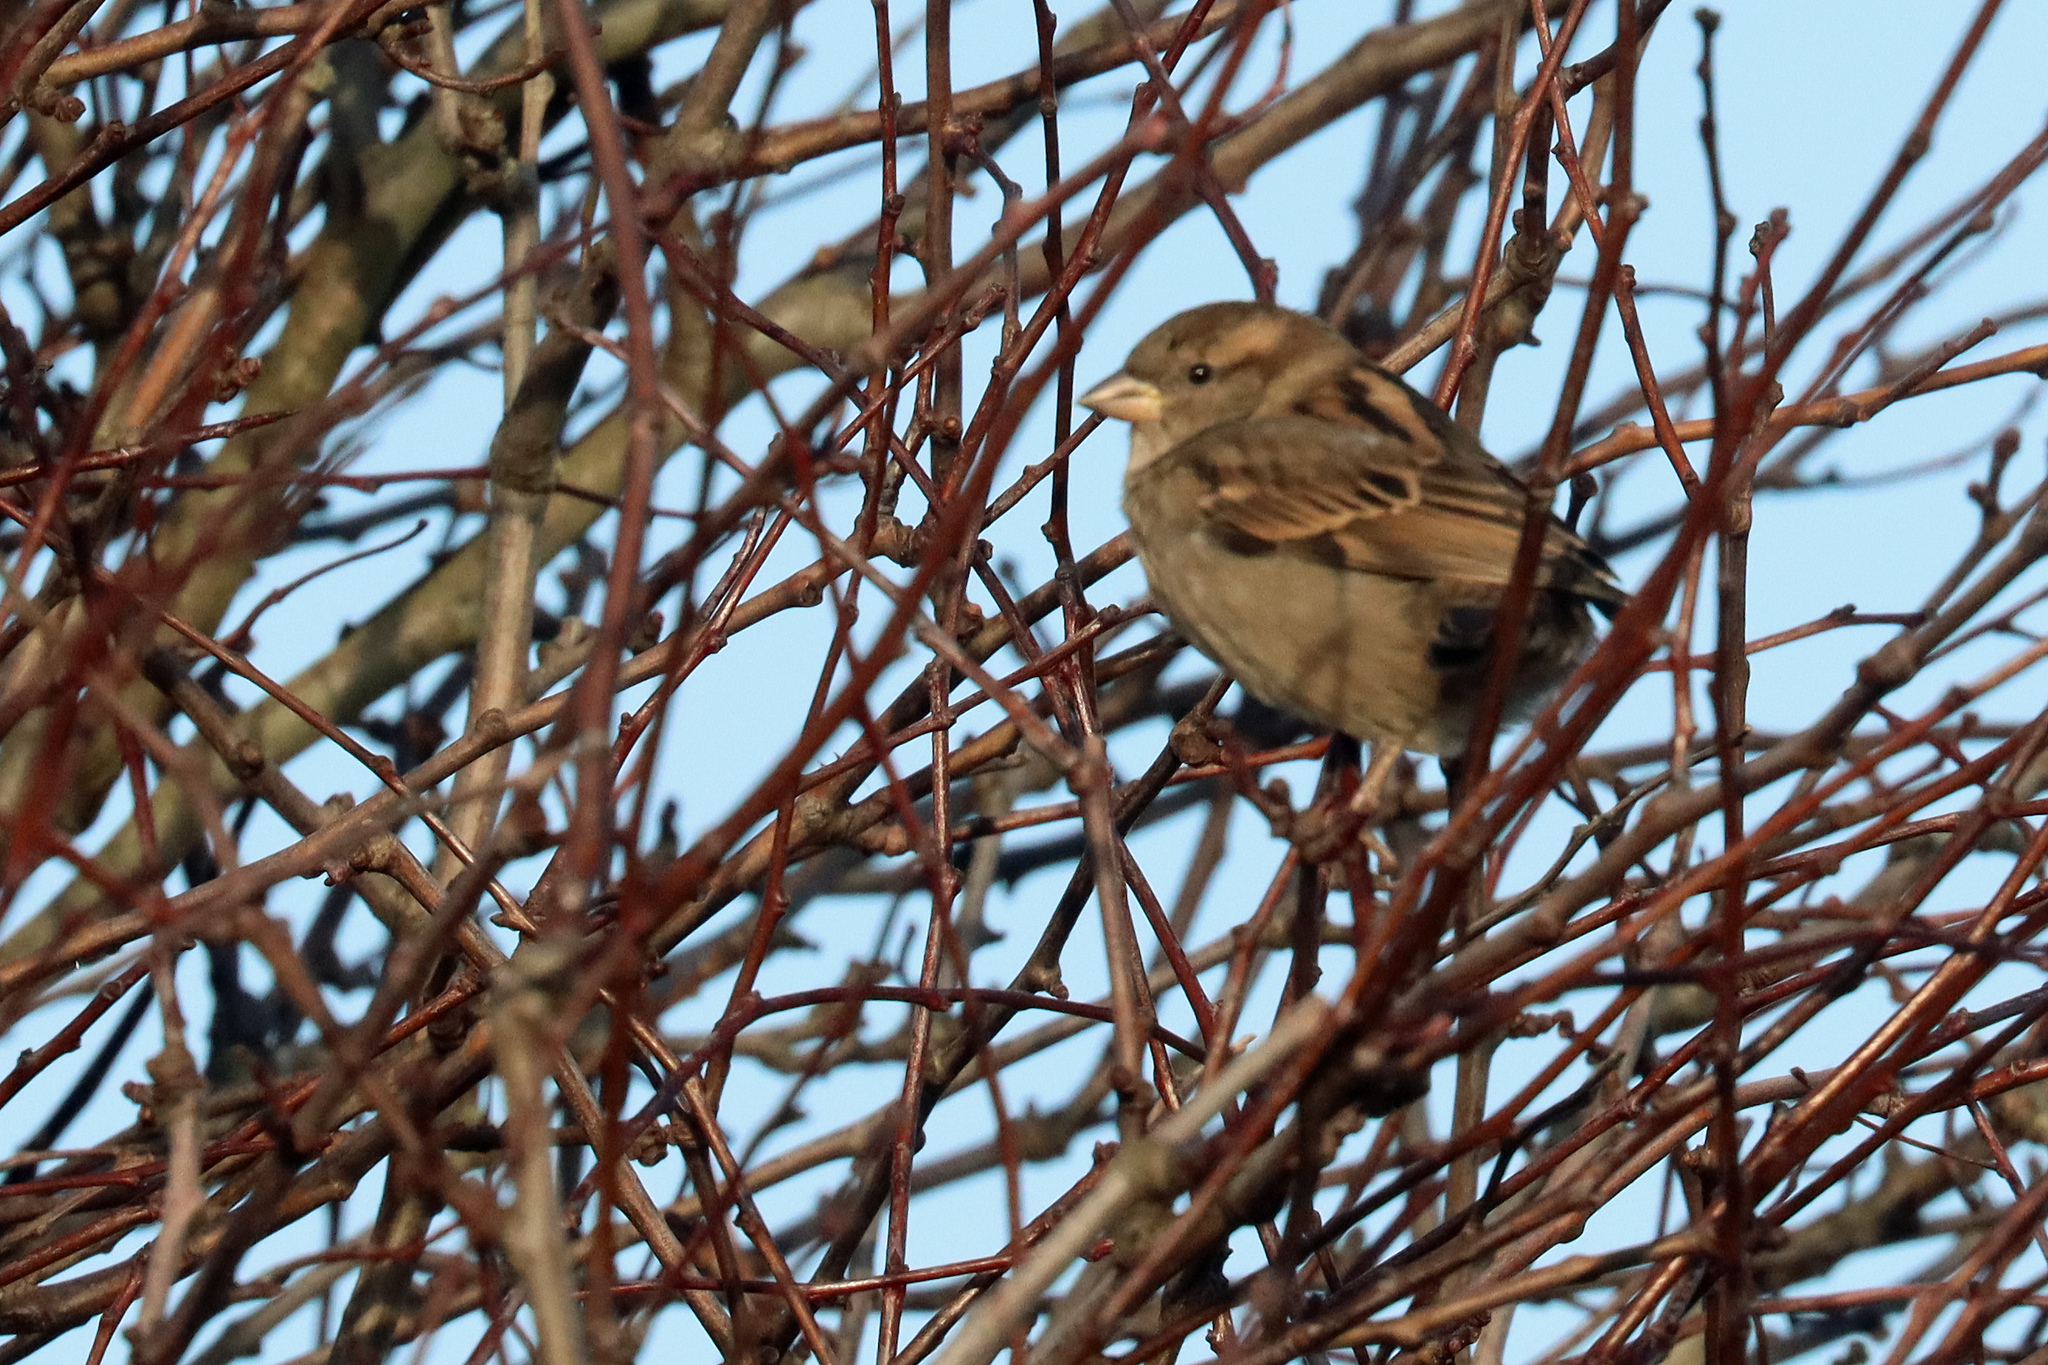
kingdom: Animalia
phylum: Chordata
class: Aves
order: Passeriformes
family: Passeridae
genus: Passer
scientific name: Passer domesticus
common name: House sparrow
